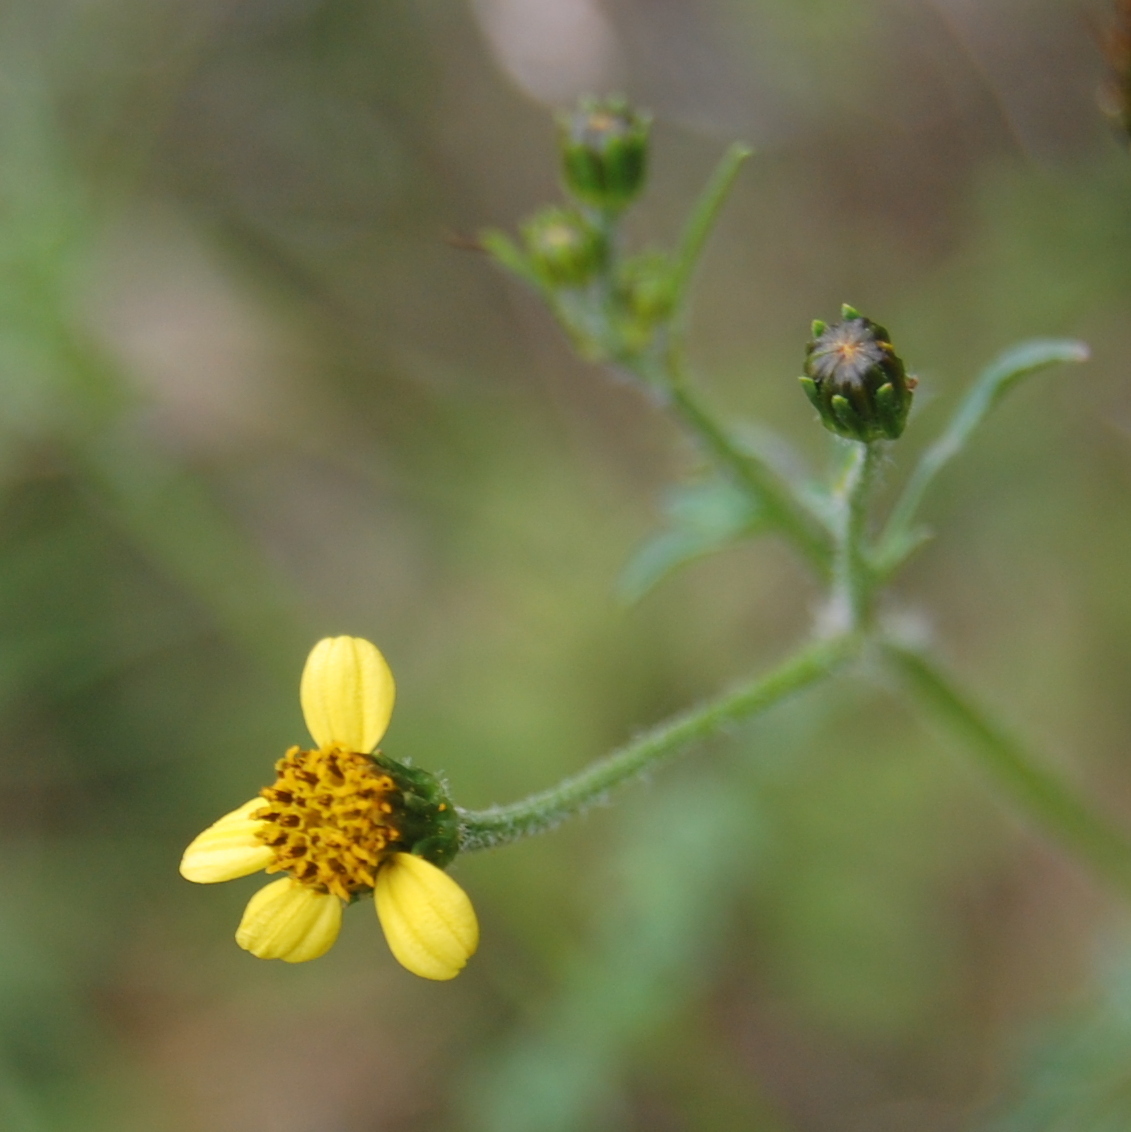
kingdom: Plantae
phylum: Tracheophyta
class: Magnoliopsida
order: Asterales
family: Asteraceae
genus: Bidens
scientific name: Bidens subalternans
